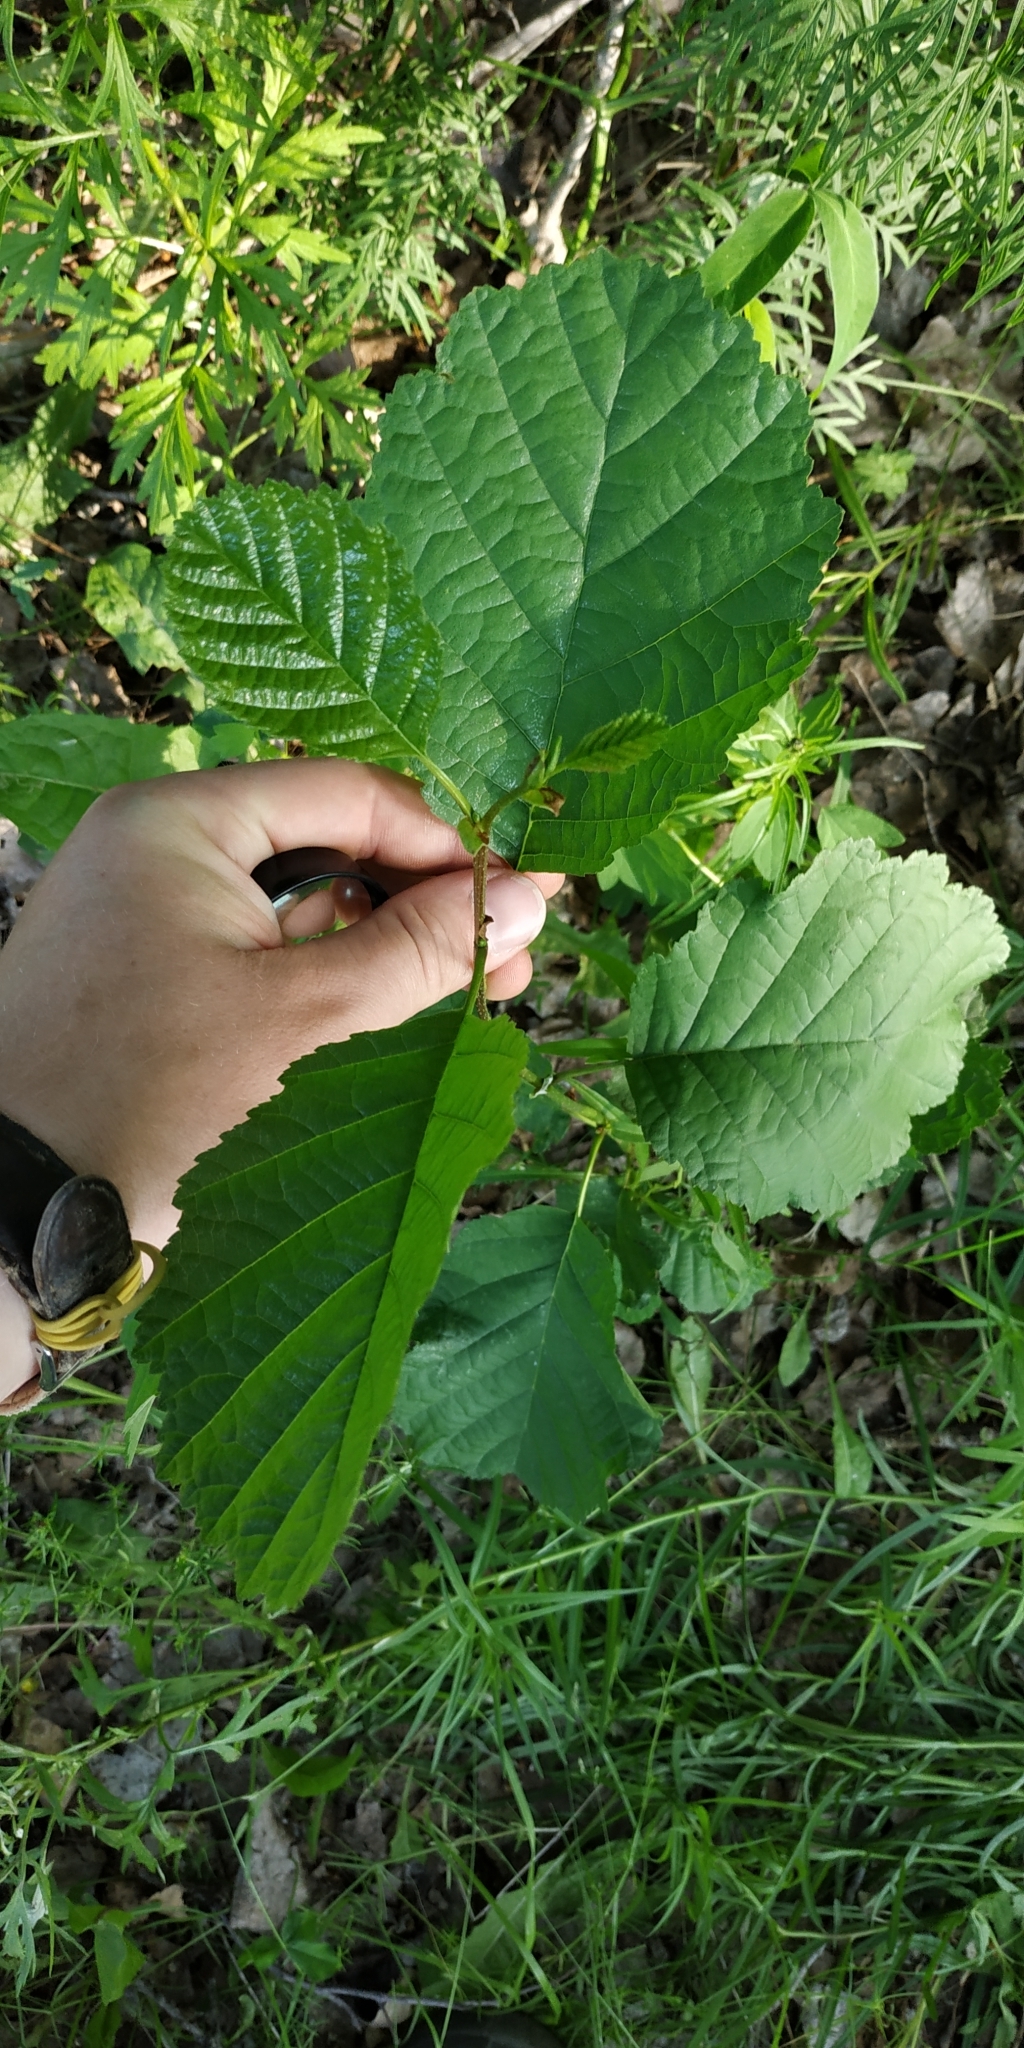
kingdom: Plantae
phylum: Tracheophyta
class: Magnoliopsida
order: Fagales
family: Betulaceae
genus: Alnus
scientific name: Alnus glutinosa
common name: Black alder
